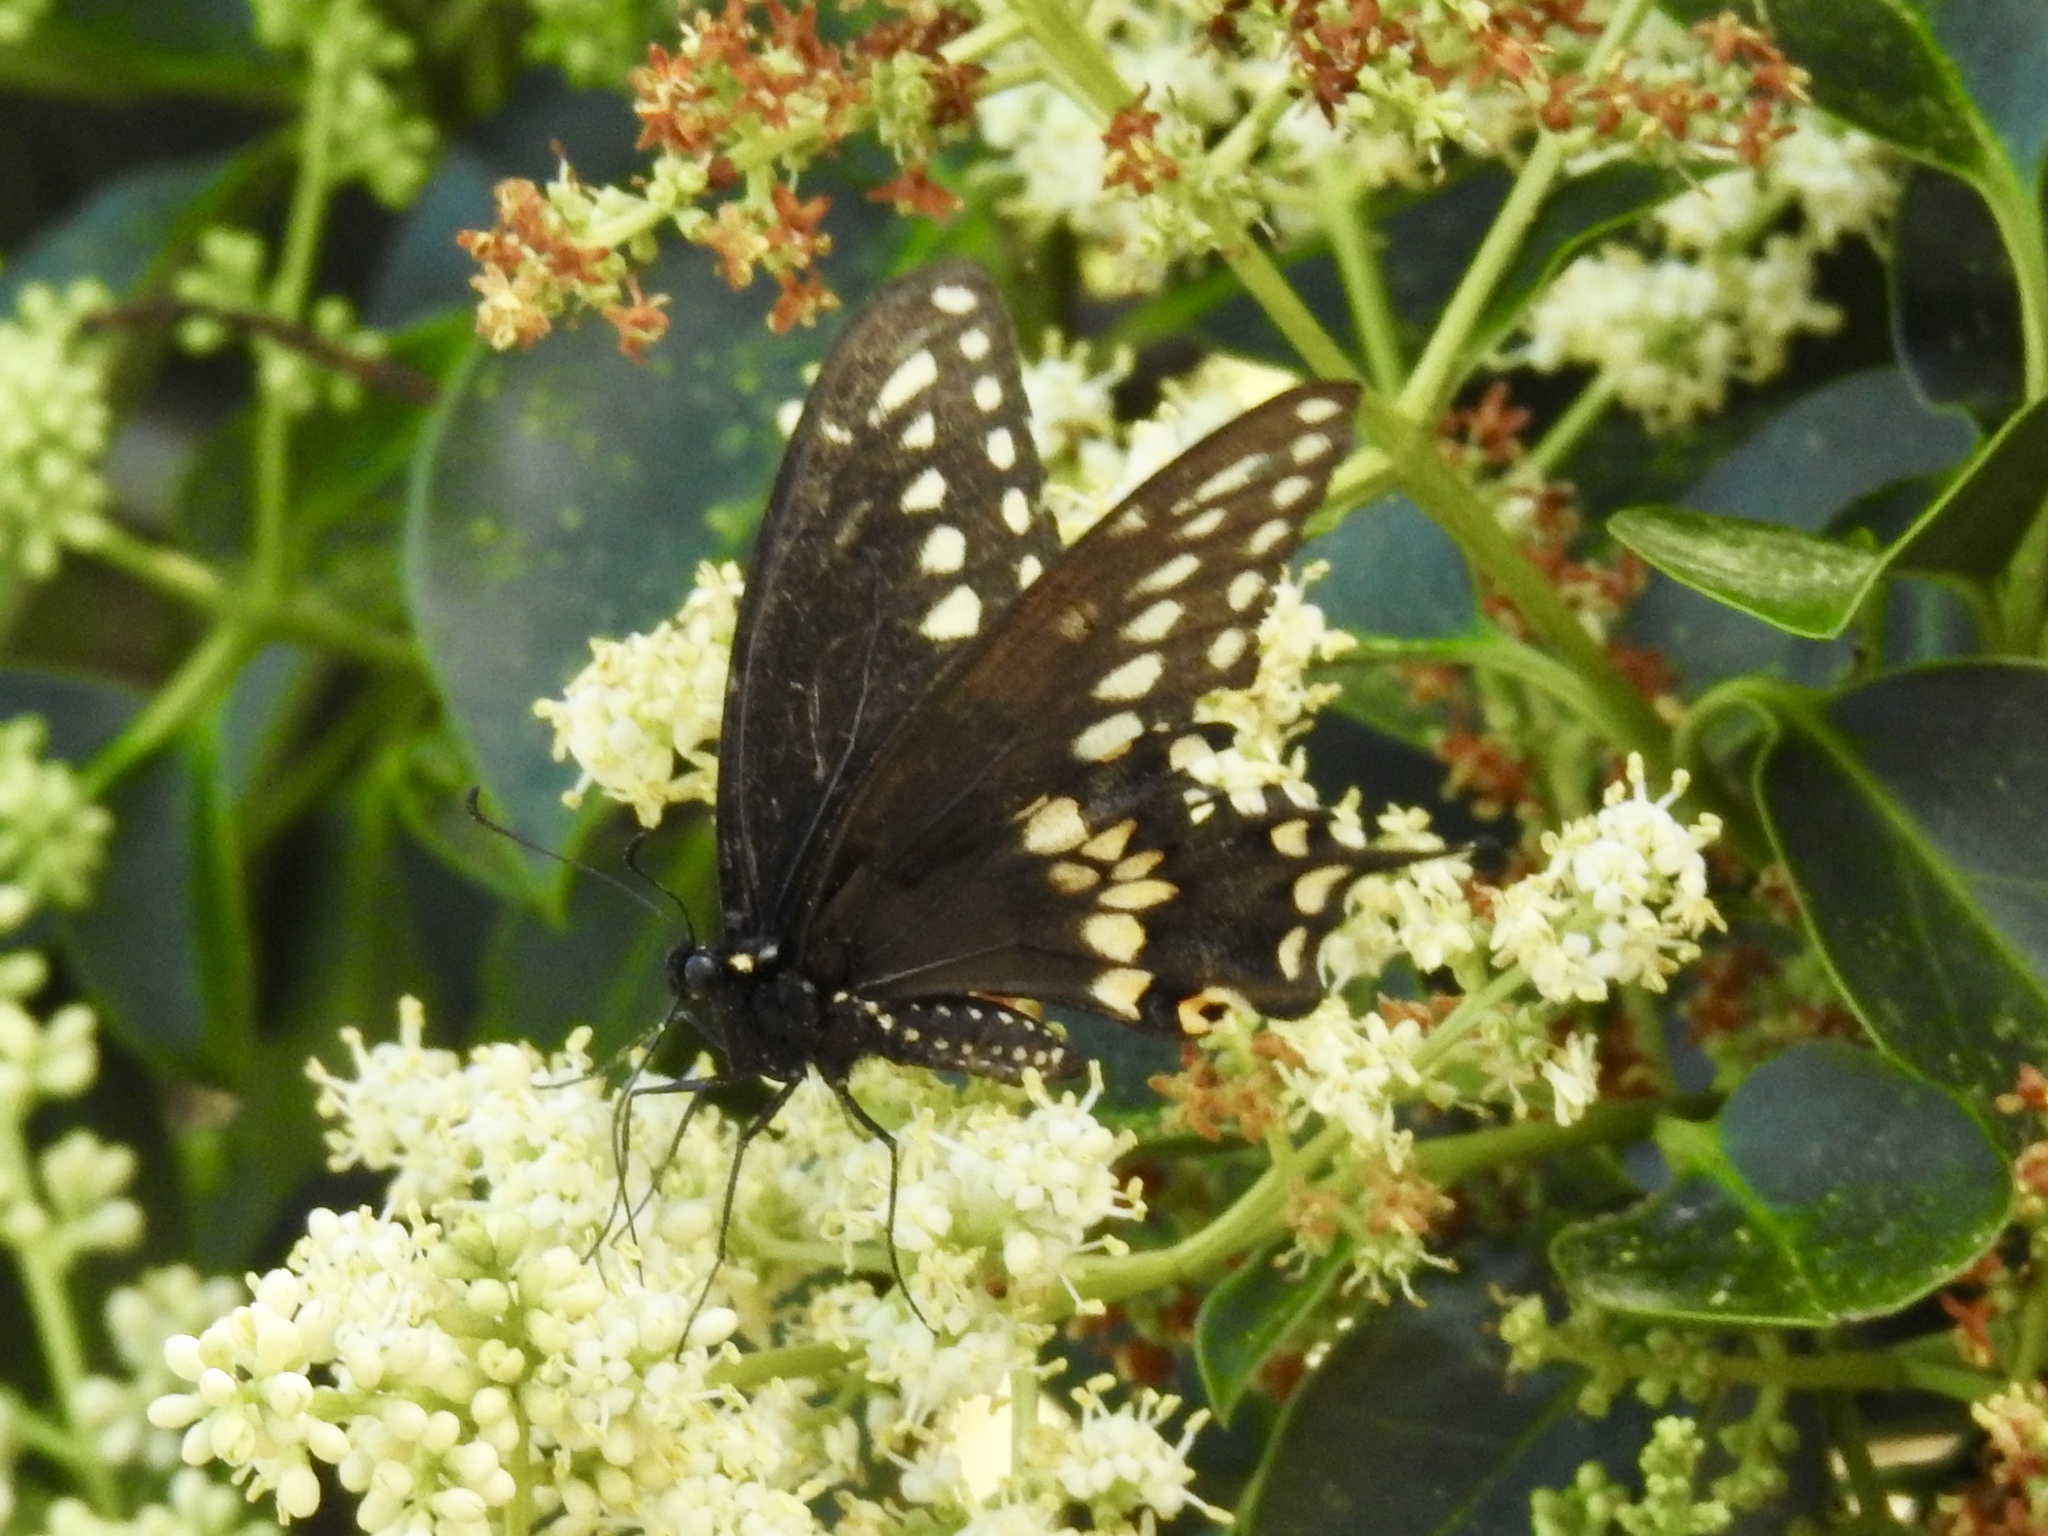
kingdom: Animalia
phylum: Arthropoda
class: Insecta
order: Lepidoptera
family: Papilionidae
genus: Papilio
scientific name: Papilio polyxenes
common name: Black swallowtail
